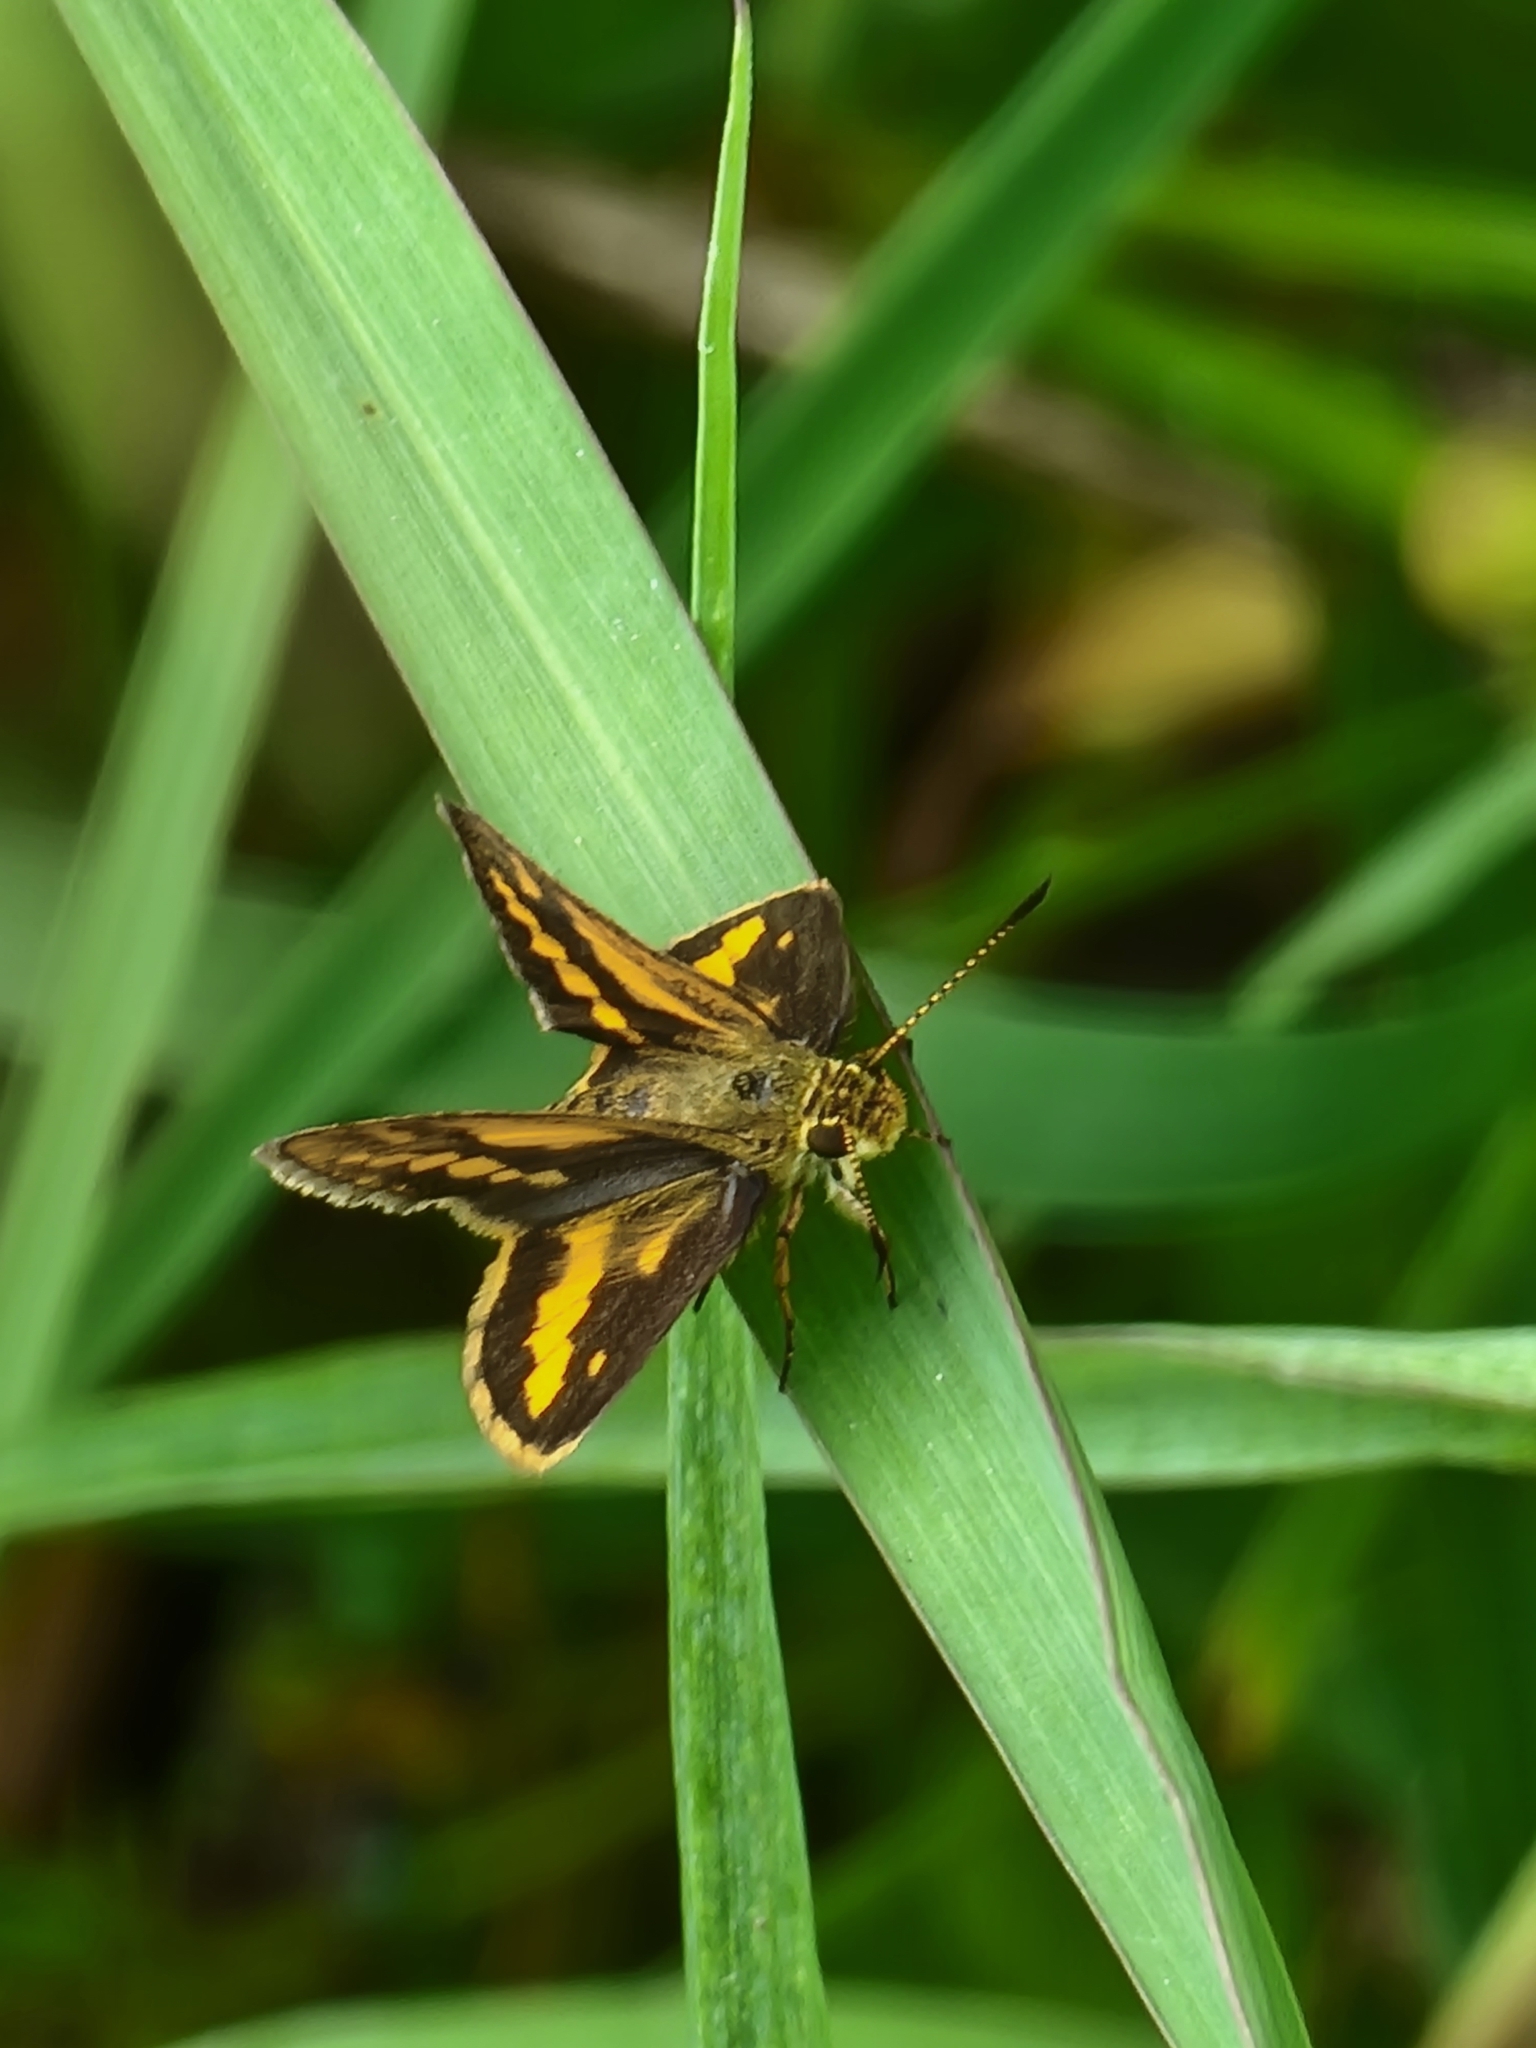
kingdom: Animalia
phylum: Arthropoda
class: Insecta
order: Lepidoptera
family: Hesperiidae
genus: Suniana
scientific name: Suniana sunias
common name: Wide-brand grass-dart
